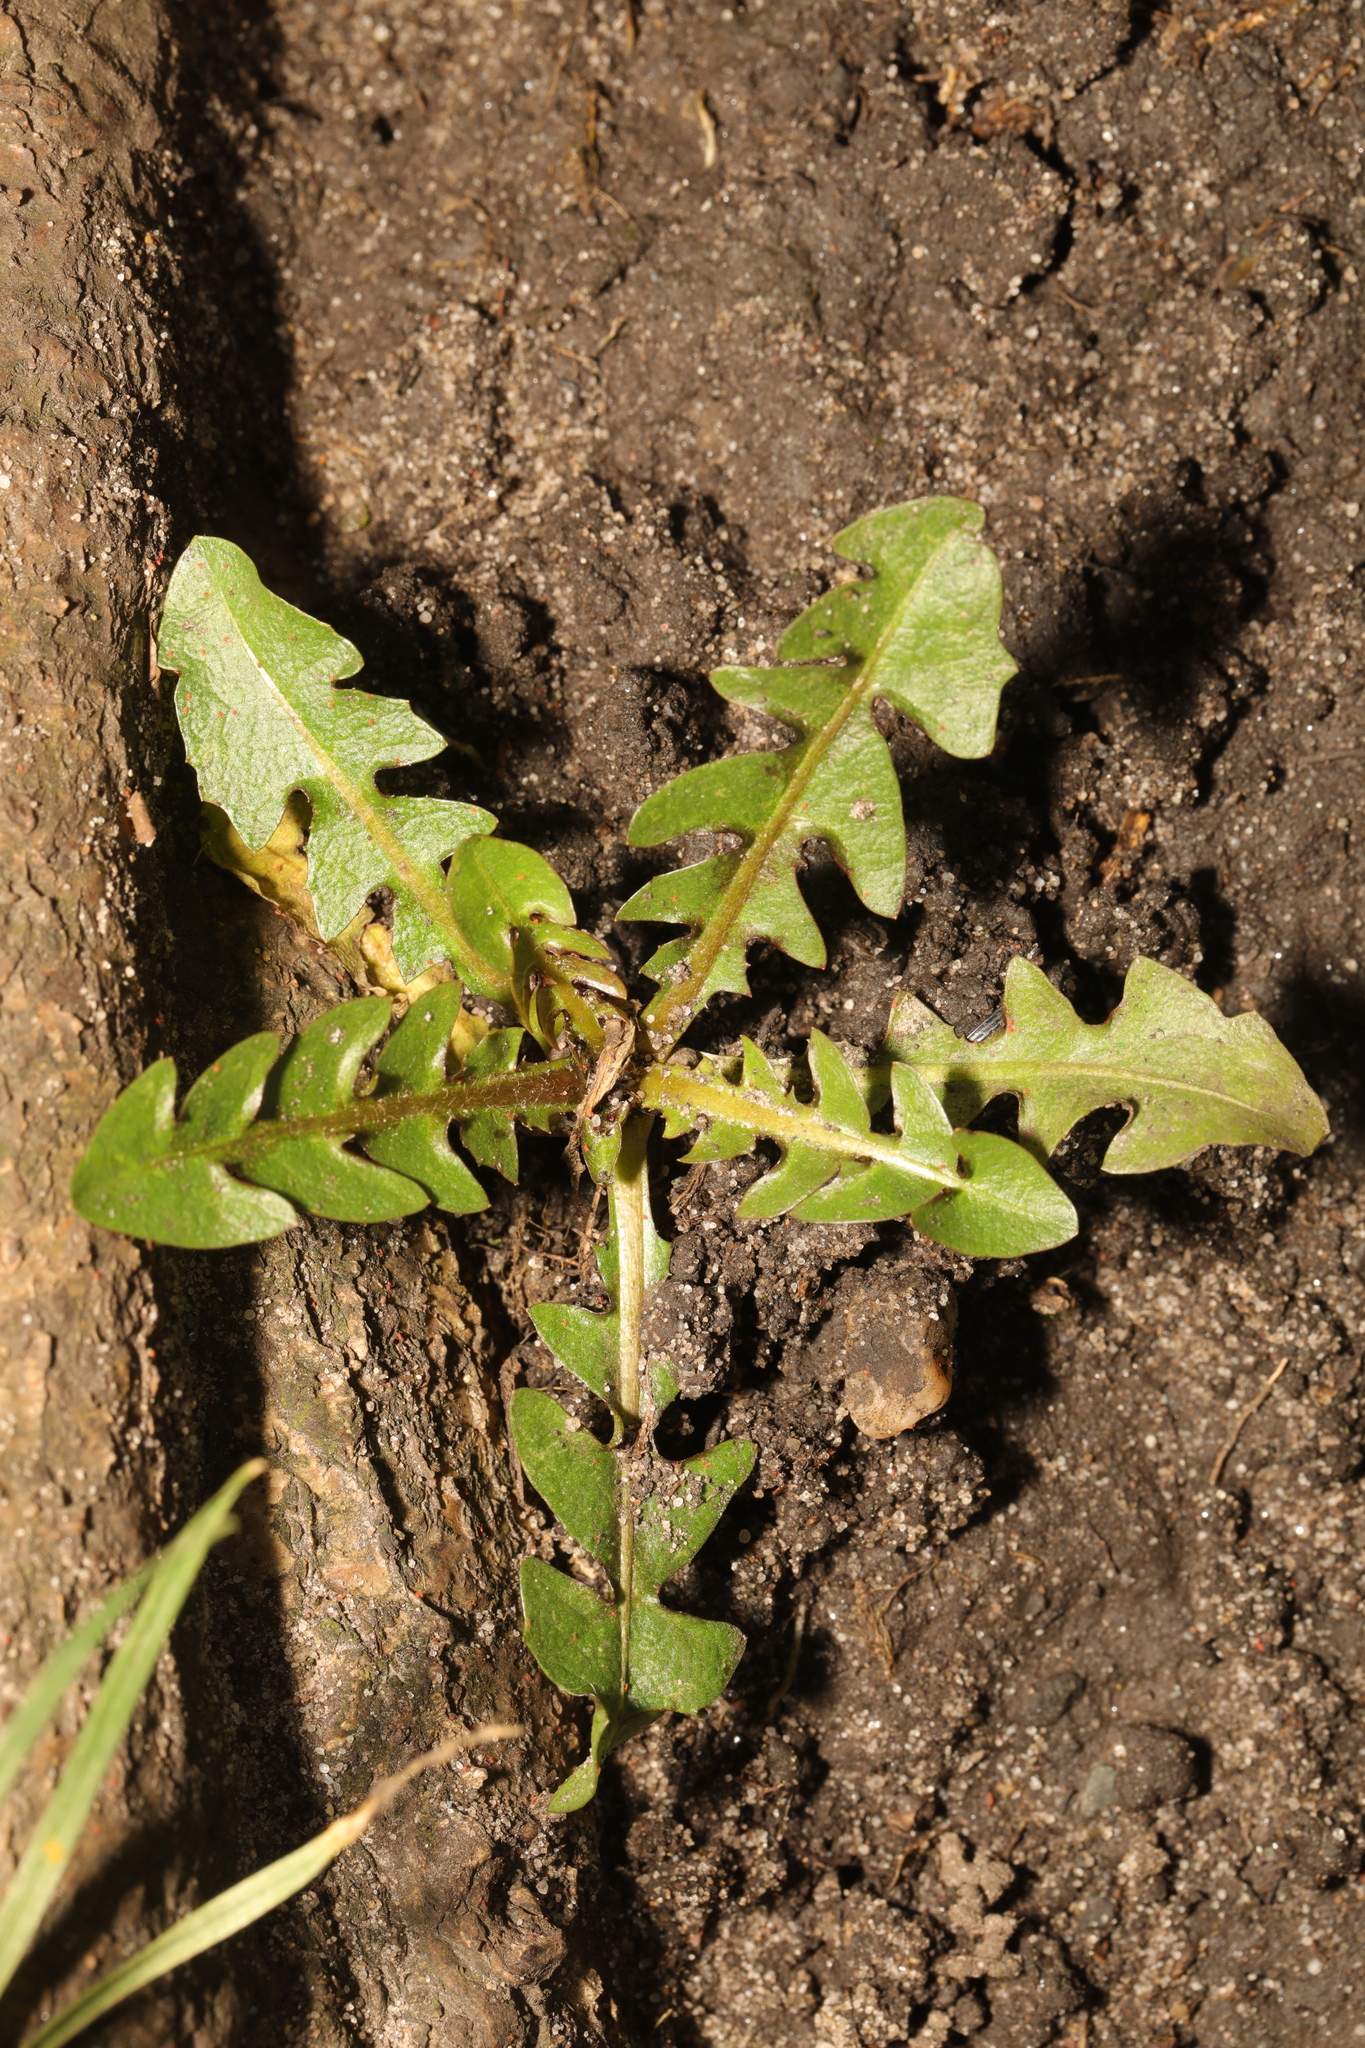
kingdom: Plantae
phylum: Tracheophyta
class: Magnoliopsida
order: Asterales
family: Asteraceae
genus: Taraxacum
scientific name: Taraxacum
